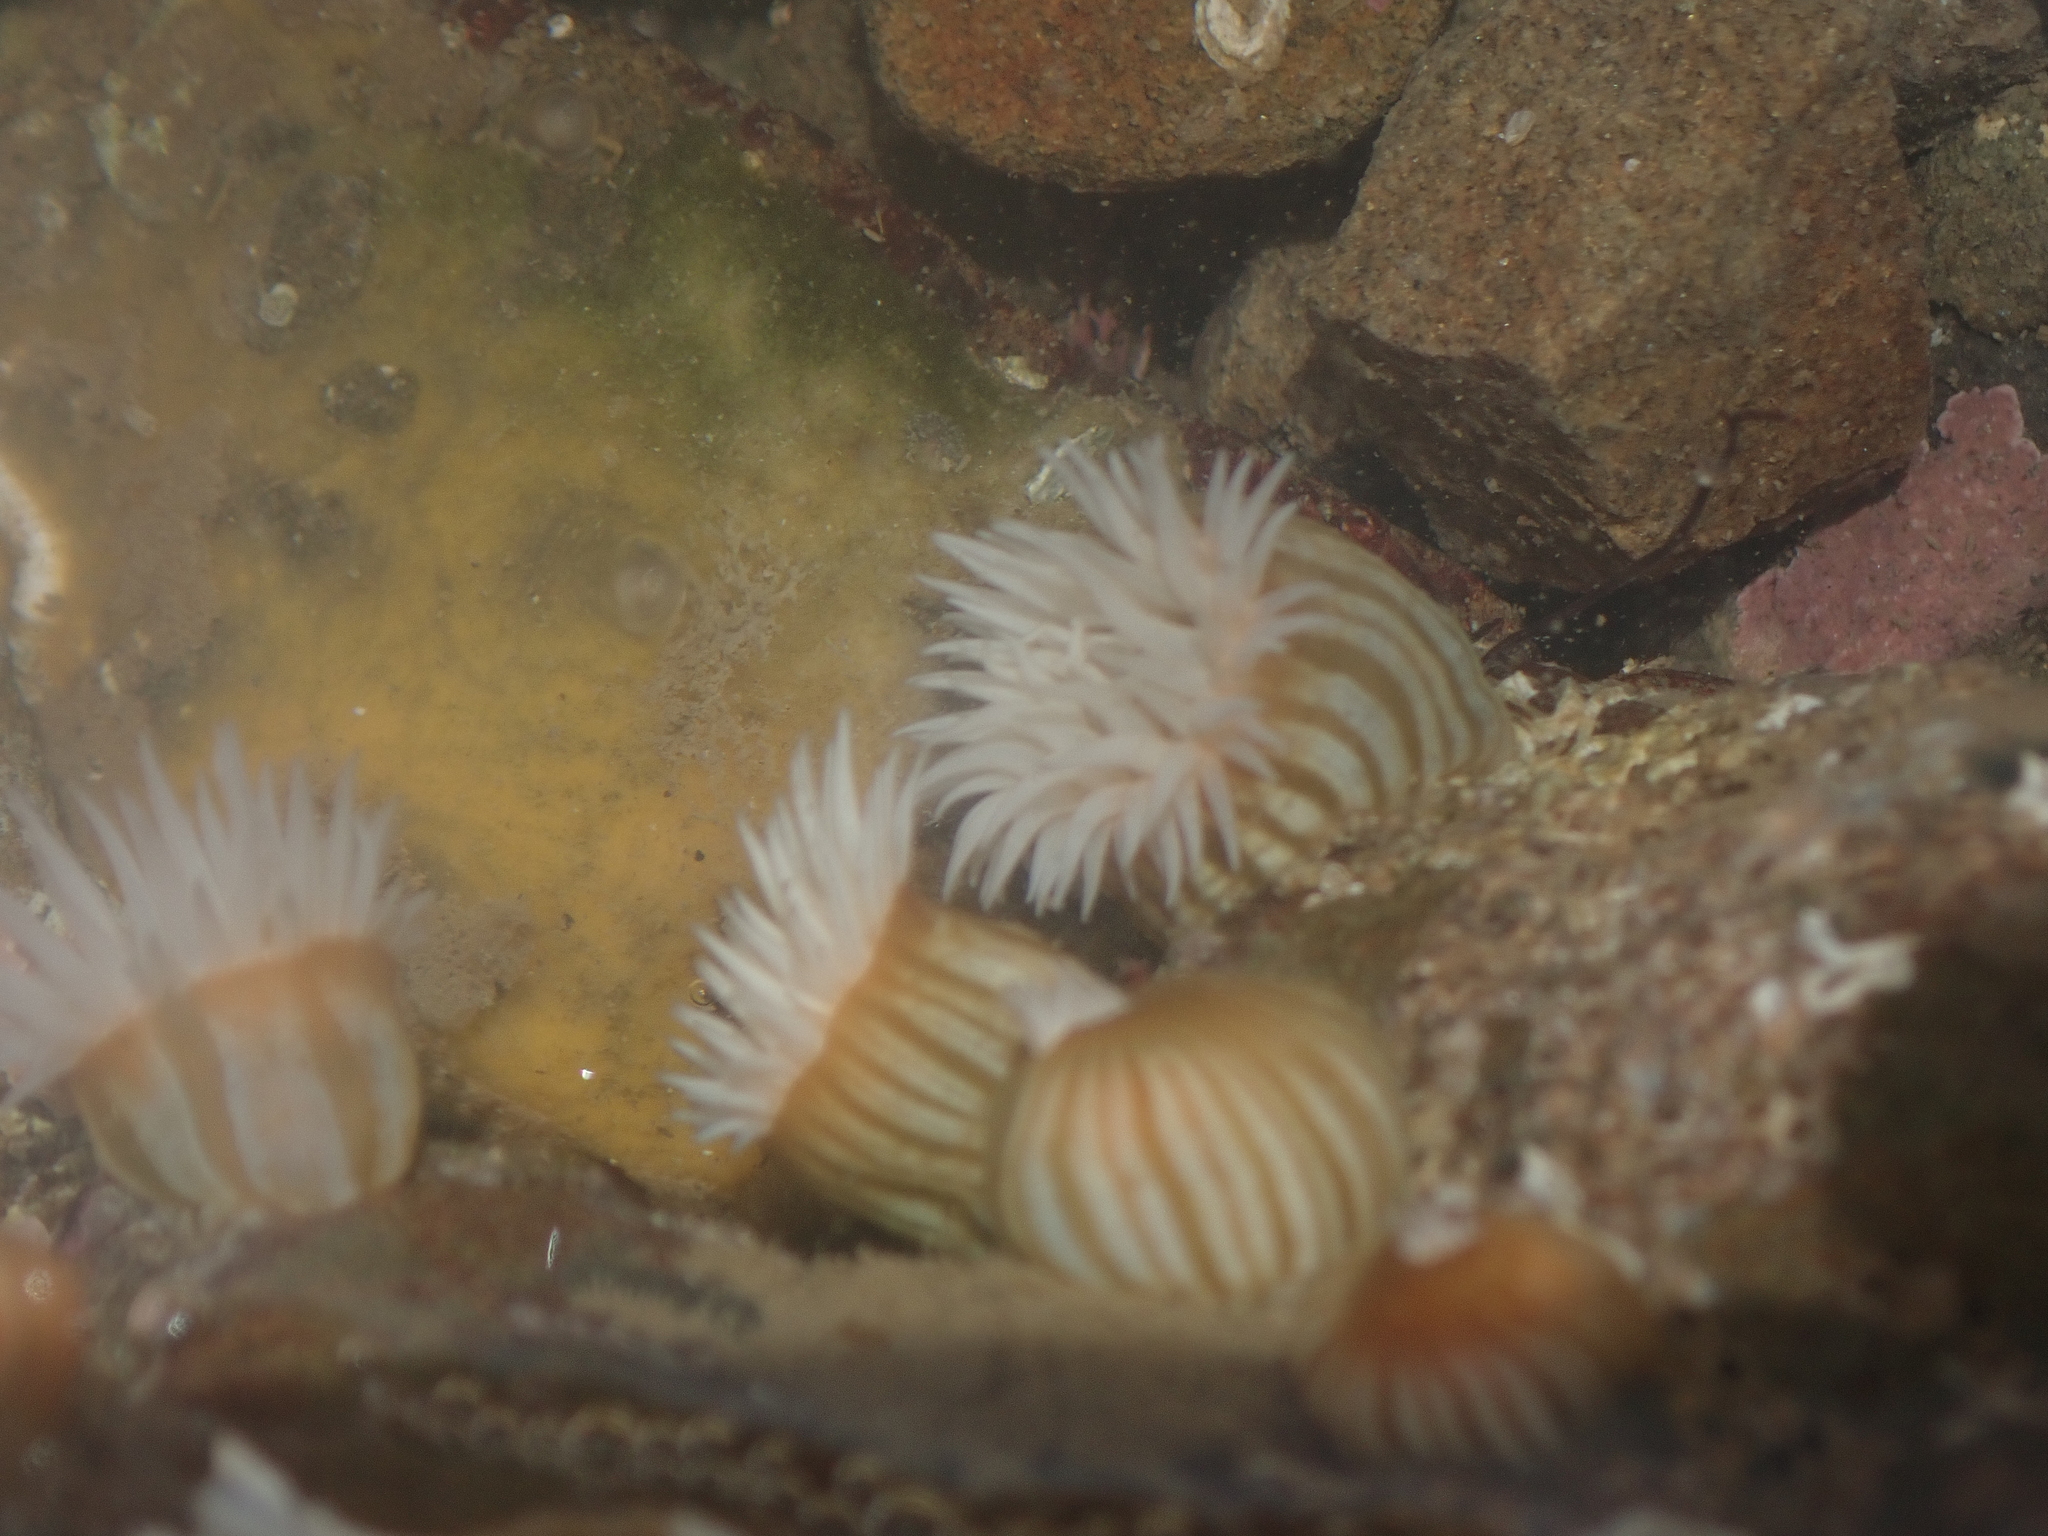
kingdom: Animalia
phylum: Cnidaria
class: Anthozoa
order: Actiniaria
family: Sagartiidae
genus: Anthothoe
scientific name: Anthothoe albocincta
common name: Orange striped anemone
